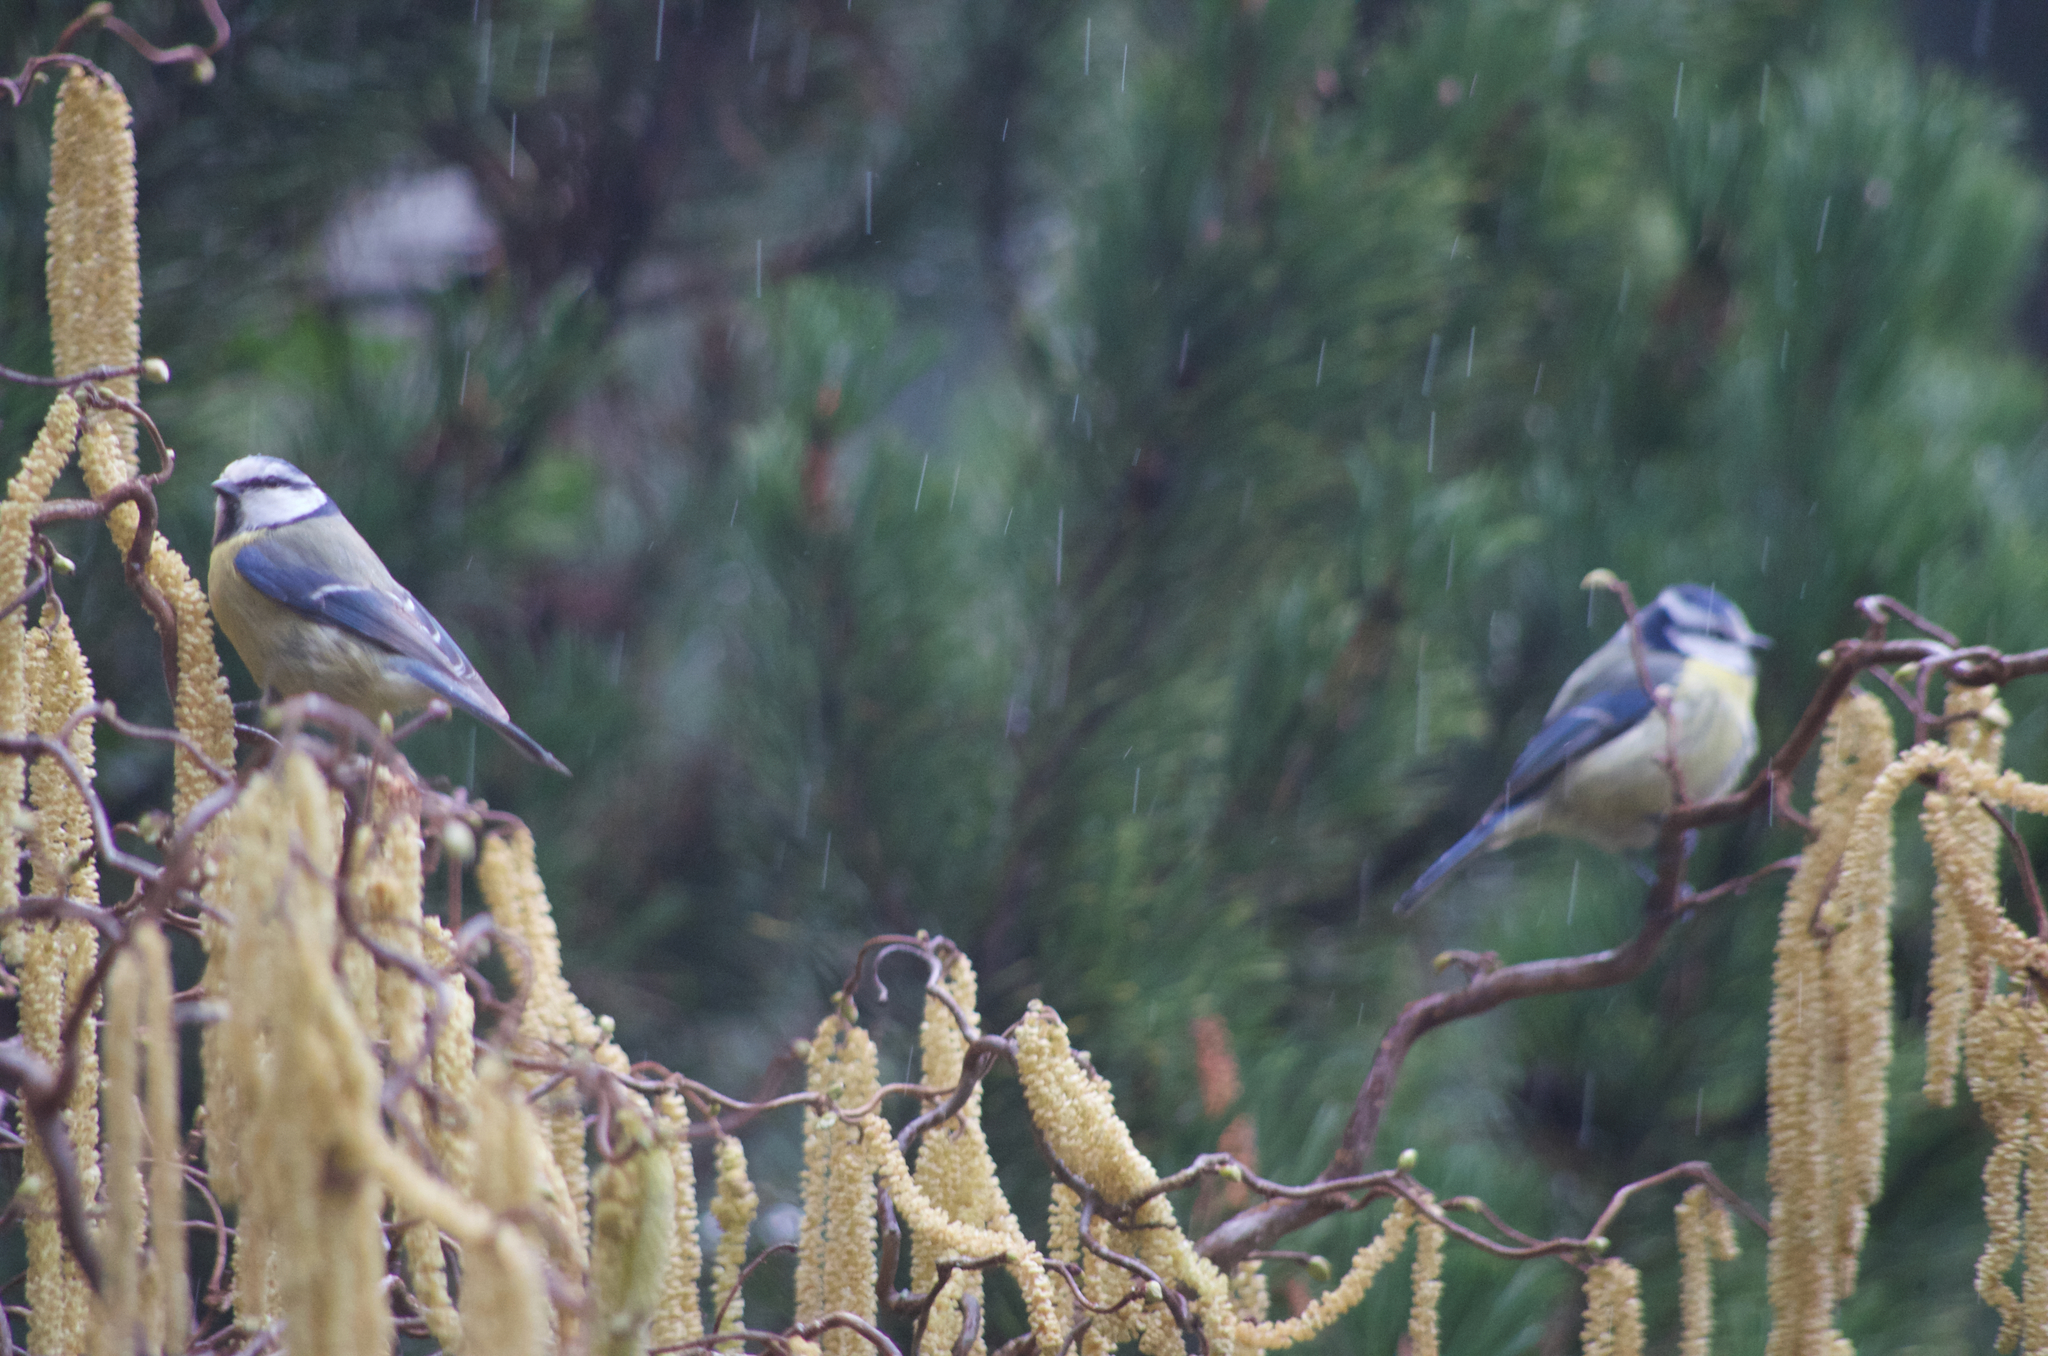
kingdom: Animalia
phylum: Chordata
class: Aves
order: Passeriformes
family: Paridae
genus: Cyanistes
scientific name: Cyanistes caeruleus
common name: Eurasian blue tit
